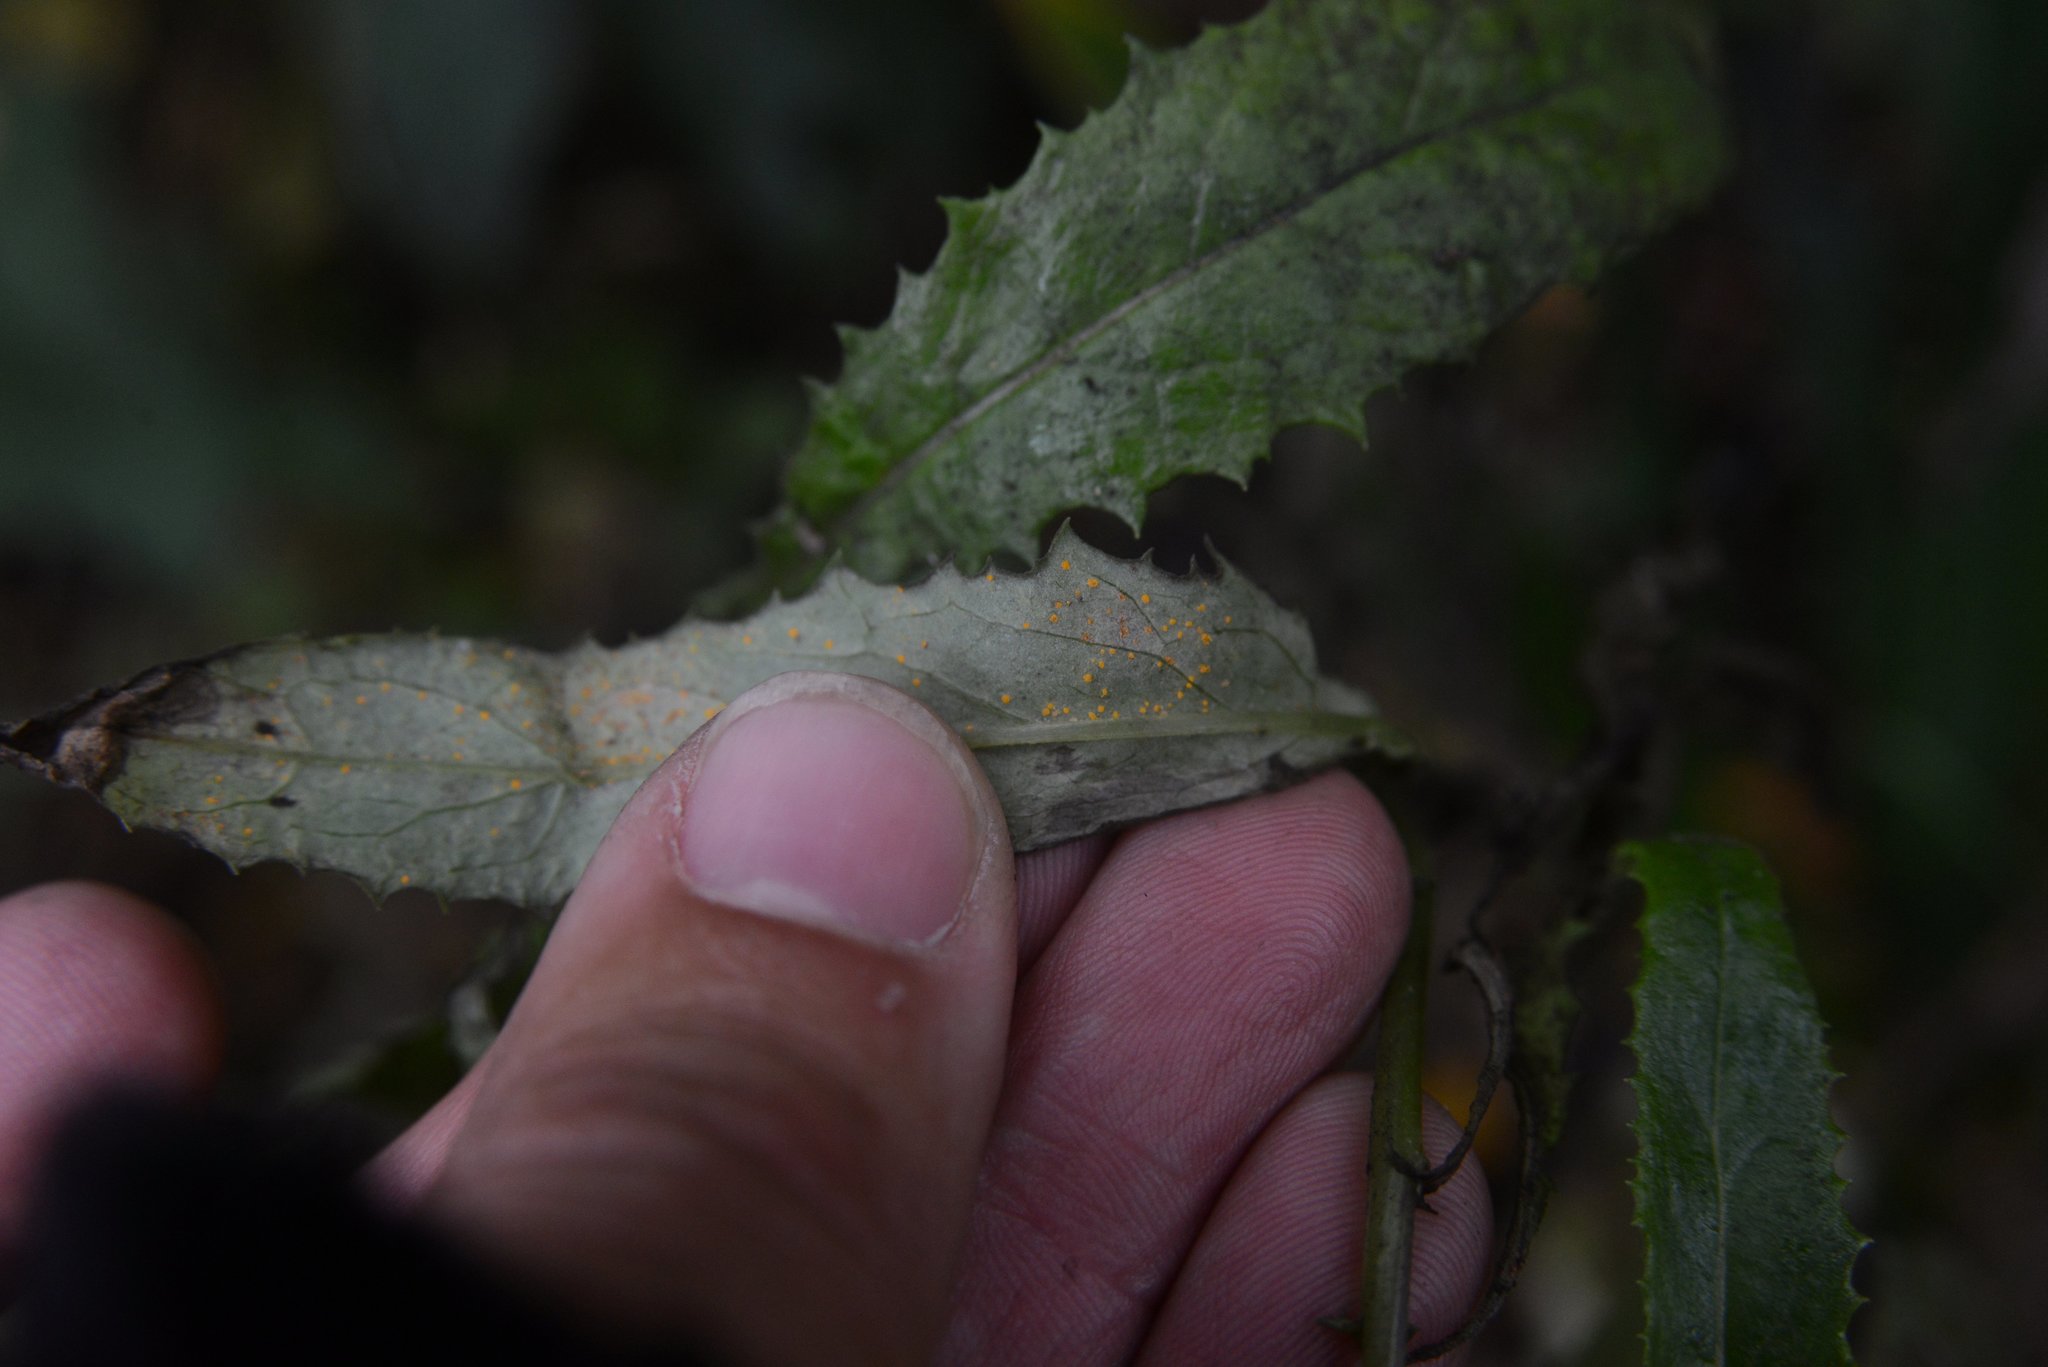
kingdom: Fungi
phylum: Basidiomycota
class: Pucciniomycetes
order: Pucciniales
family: Coleosporiaceae
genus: Coleosporium
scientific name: Coleosporium tussilaginis
